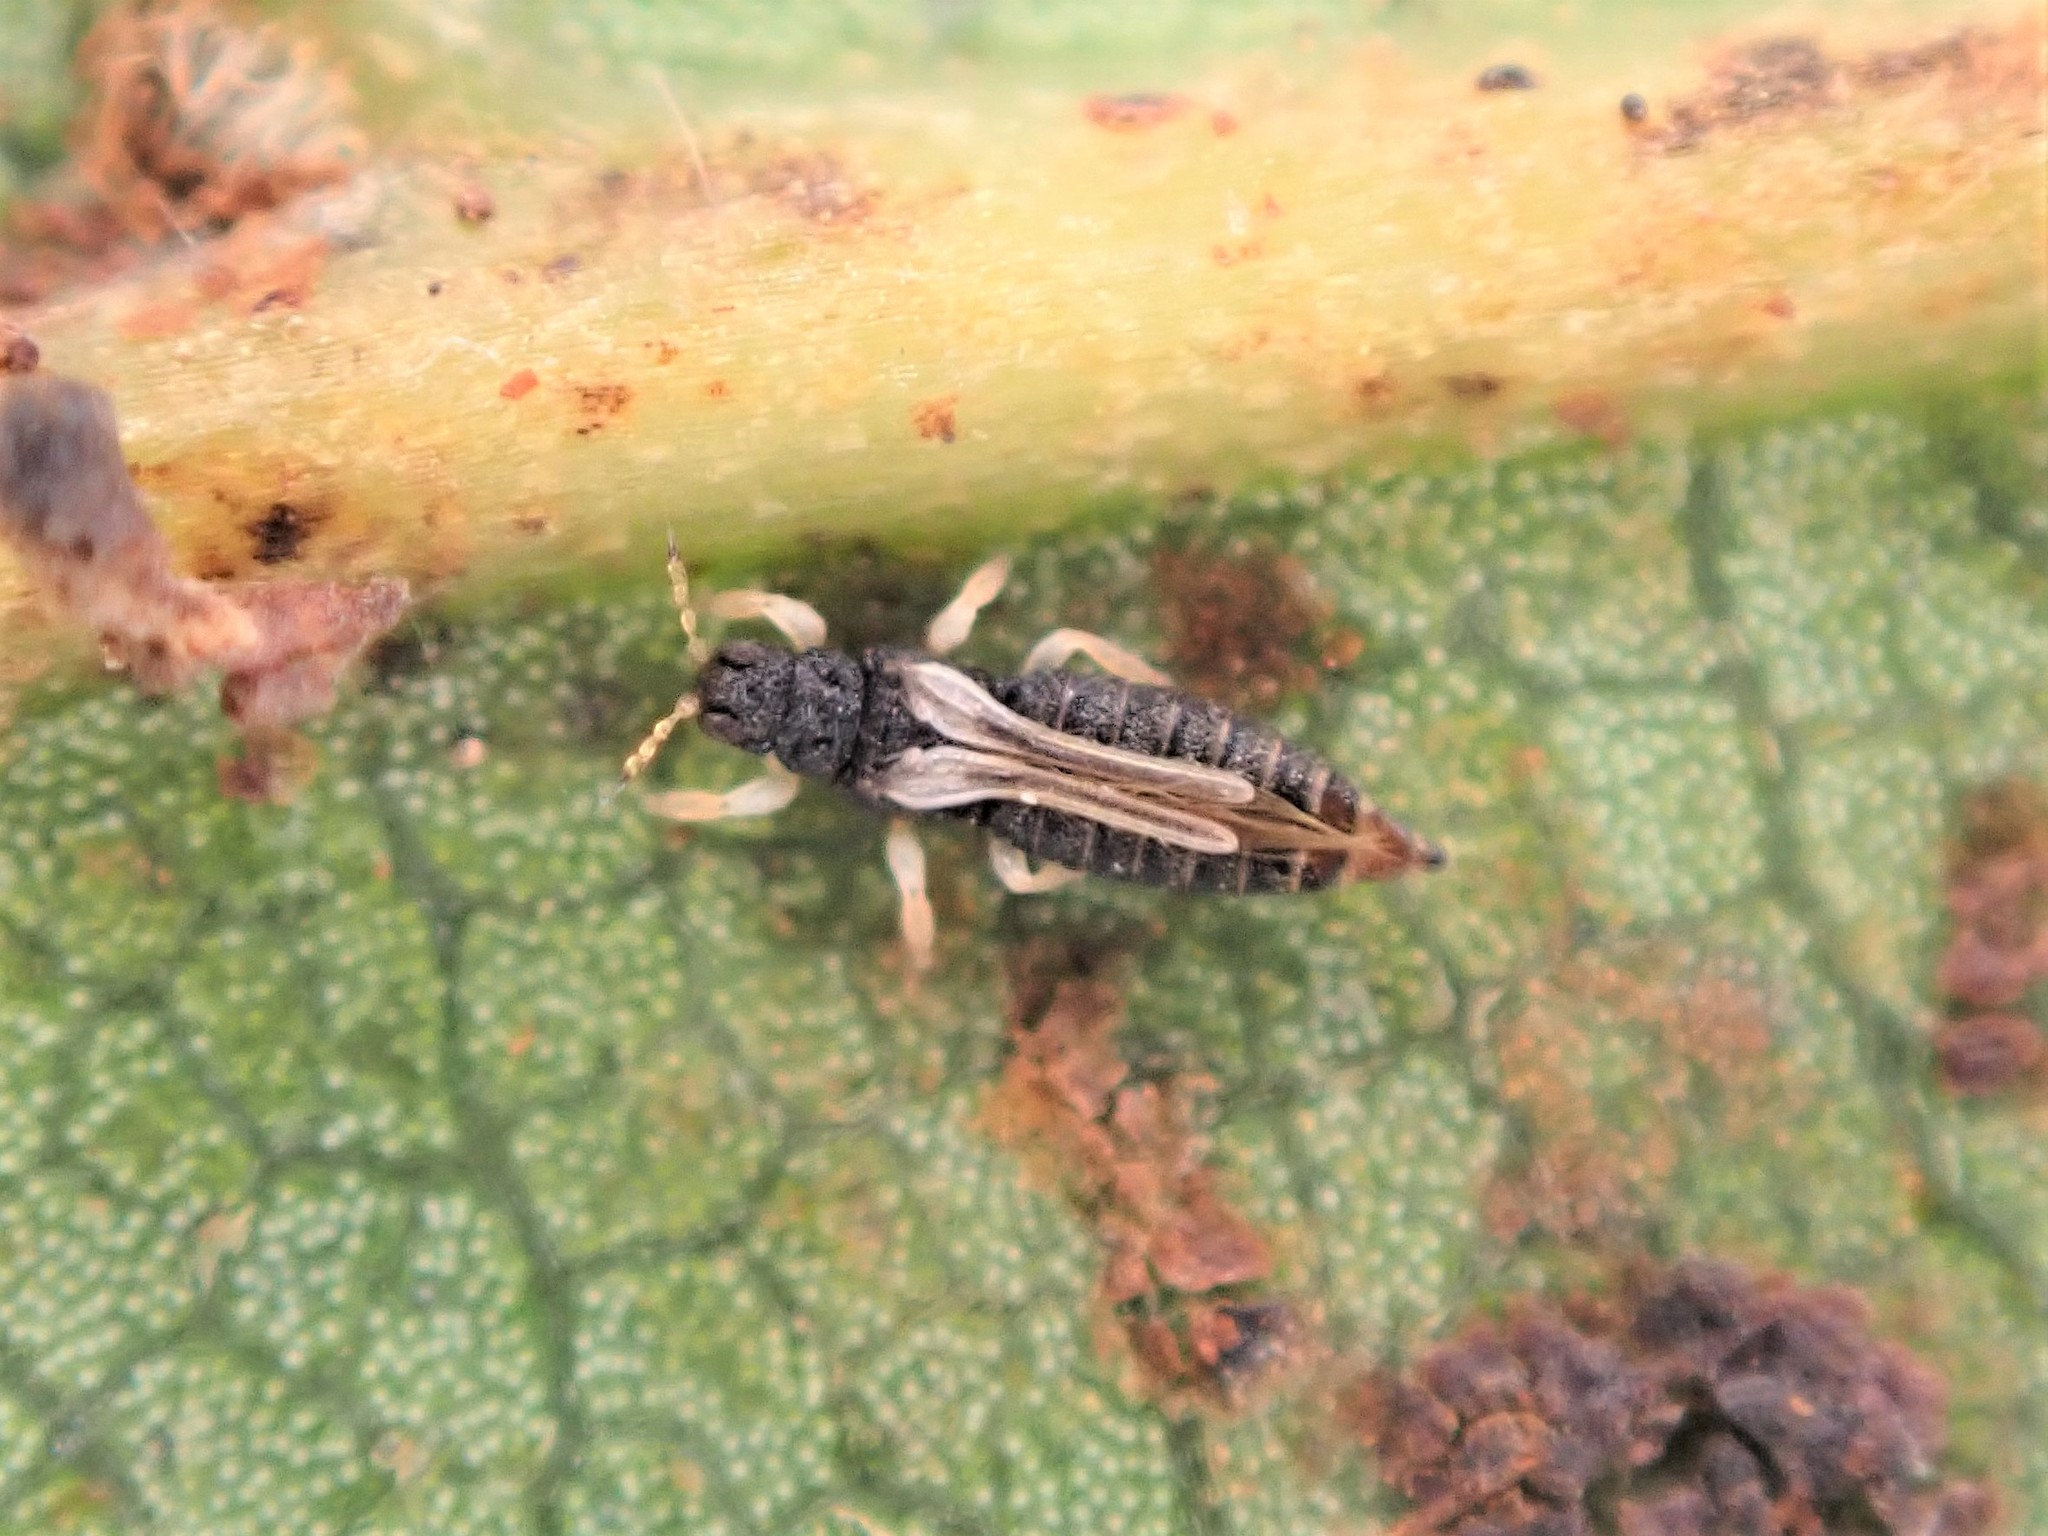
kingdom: Animalia
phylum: Arthropoda
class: Insecta
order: Thysanoptera
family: Thripidae
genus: Heliothrips
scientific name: Heliothrips haemorrhoidalis
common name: Thrips
